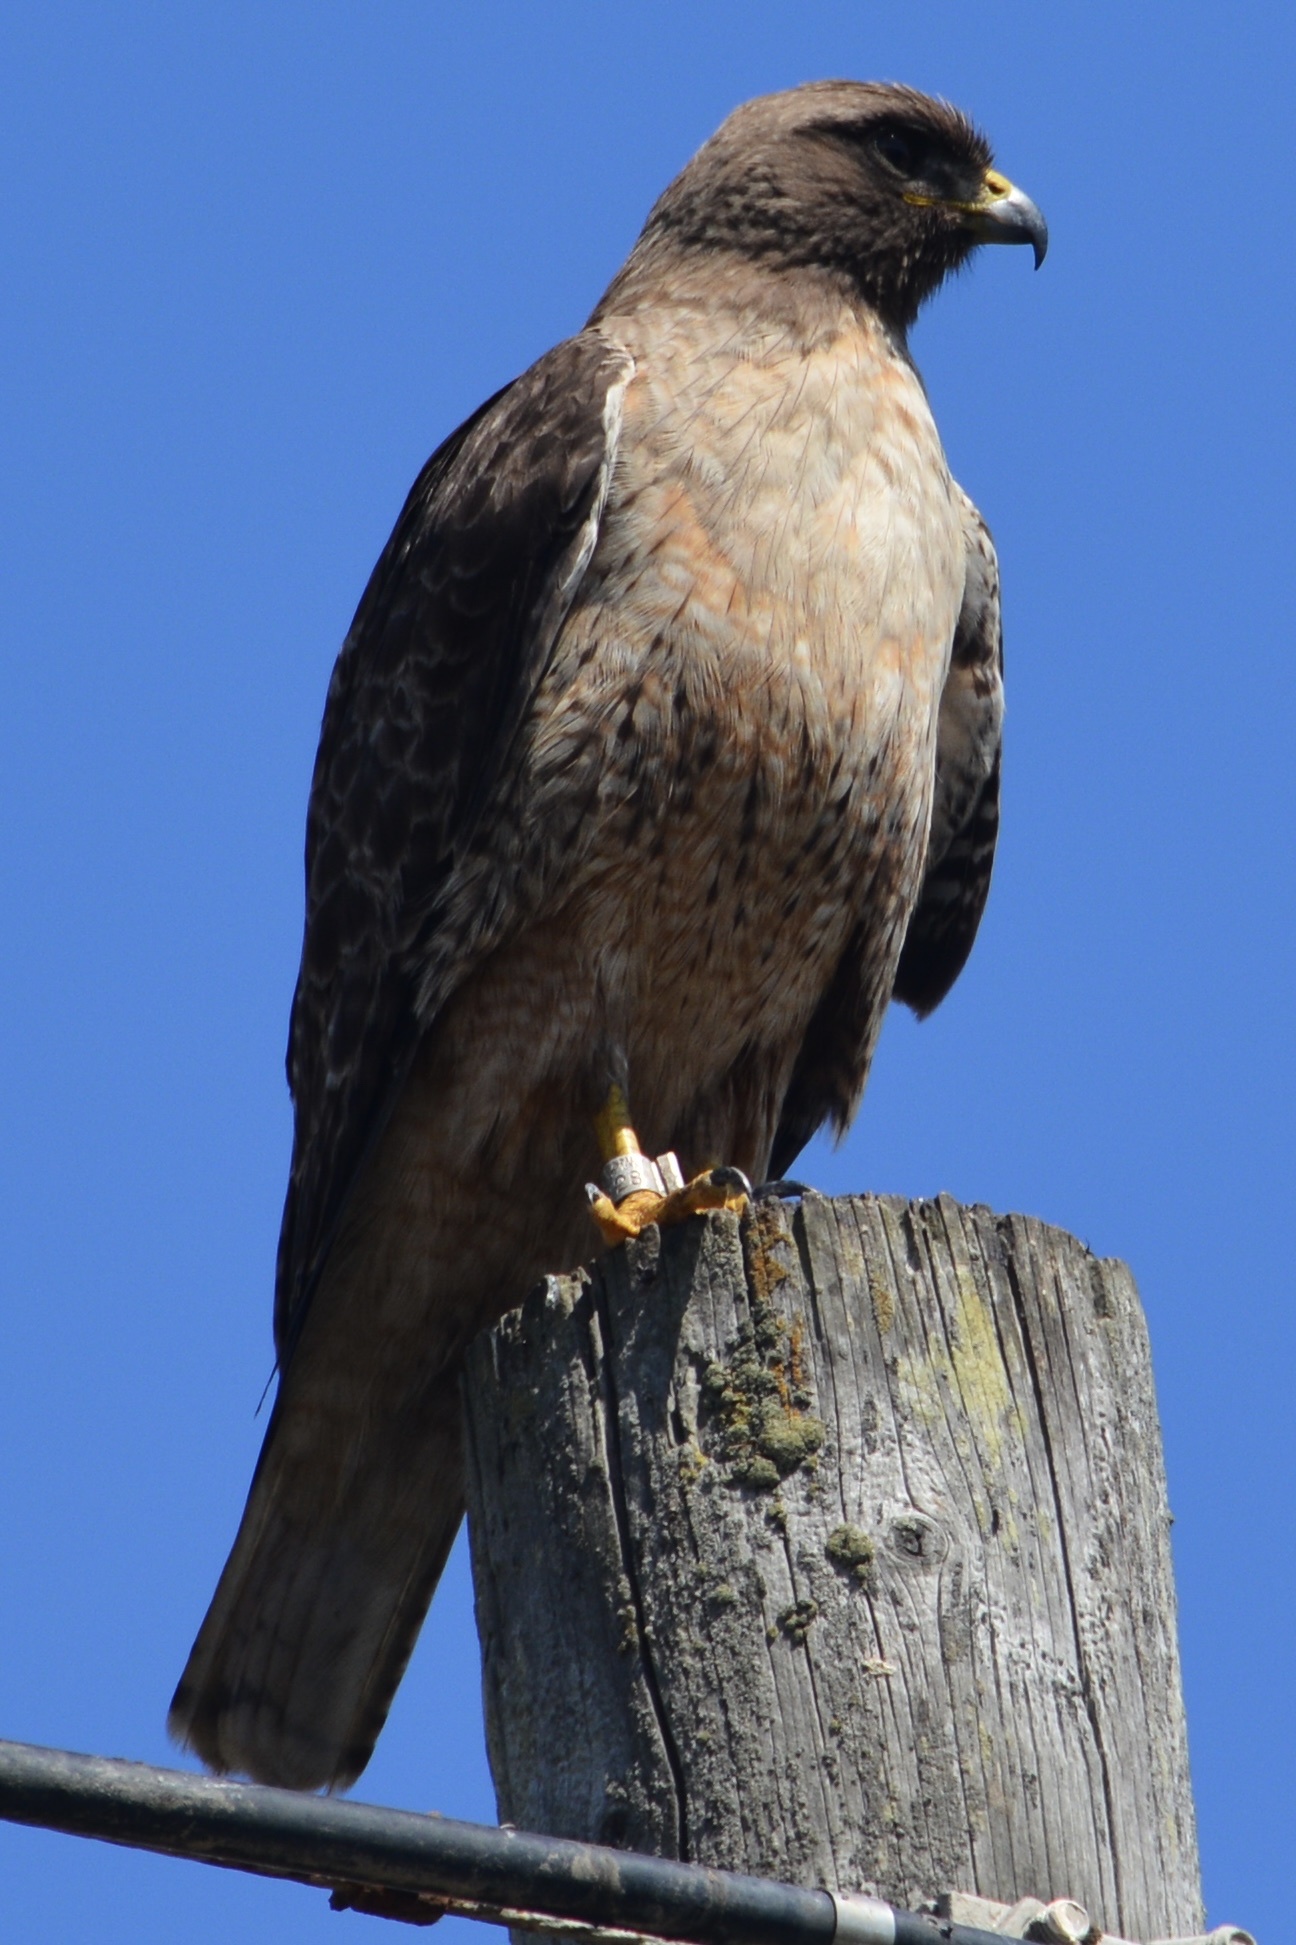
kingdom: Animalia
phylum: Chordata
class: Aves
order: Accipitriformes
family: Accipitridae
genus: Buteo
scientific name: Buteo jamaicensis
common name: Red-tailed hawk
